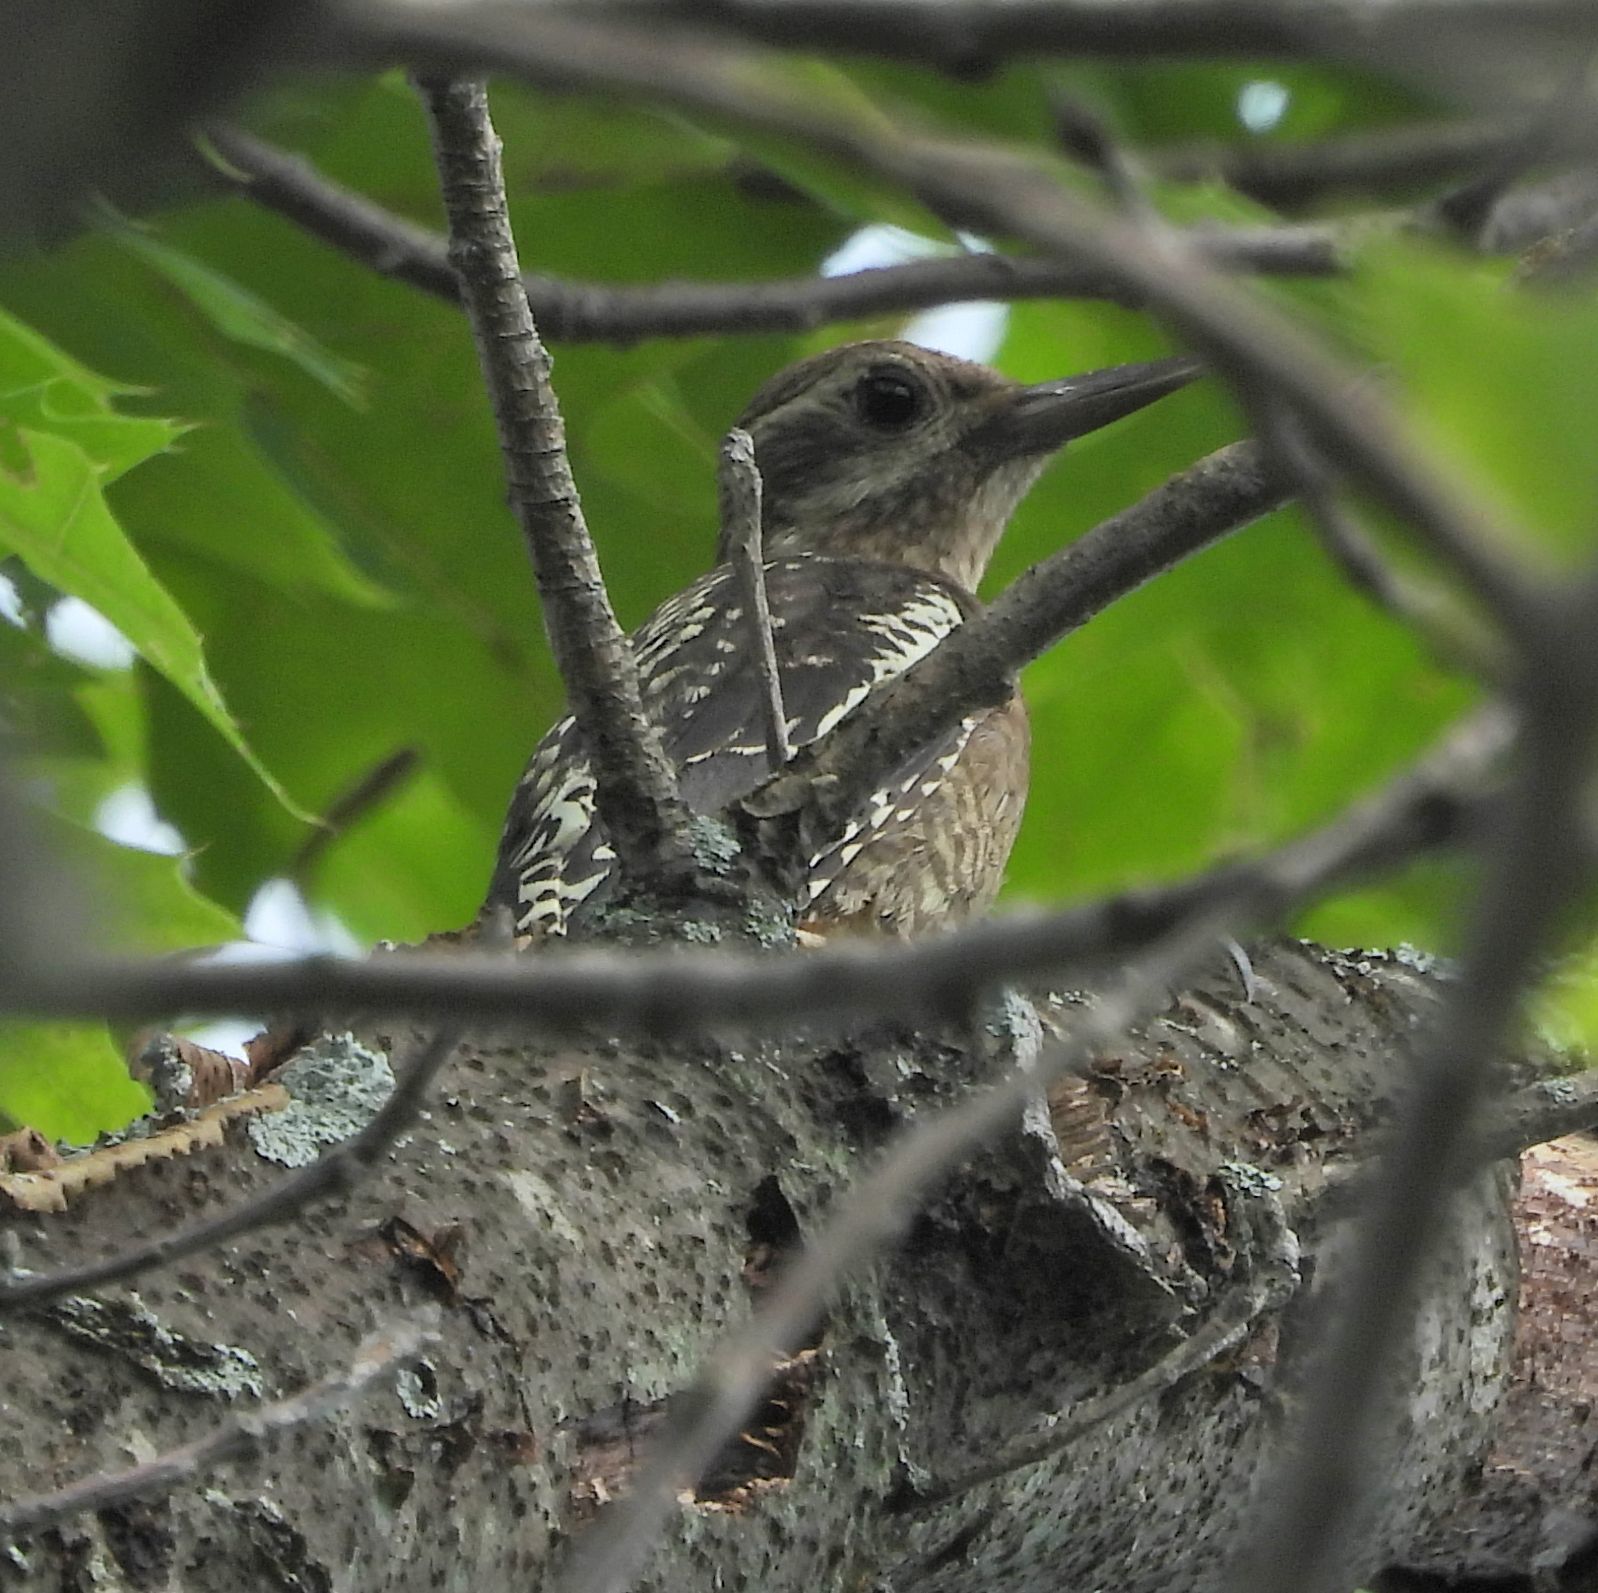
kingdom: Animalia
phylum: Chordata
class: Aves
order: Piciformes
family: Picidae
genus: Sphyrapicus
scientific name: Sphyrapicus varius
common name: Yellow-bellied sapsucker
